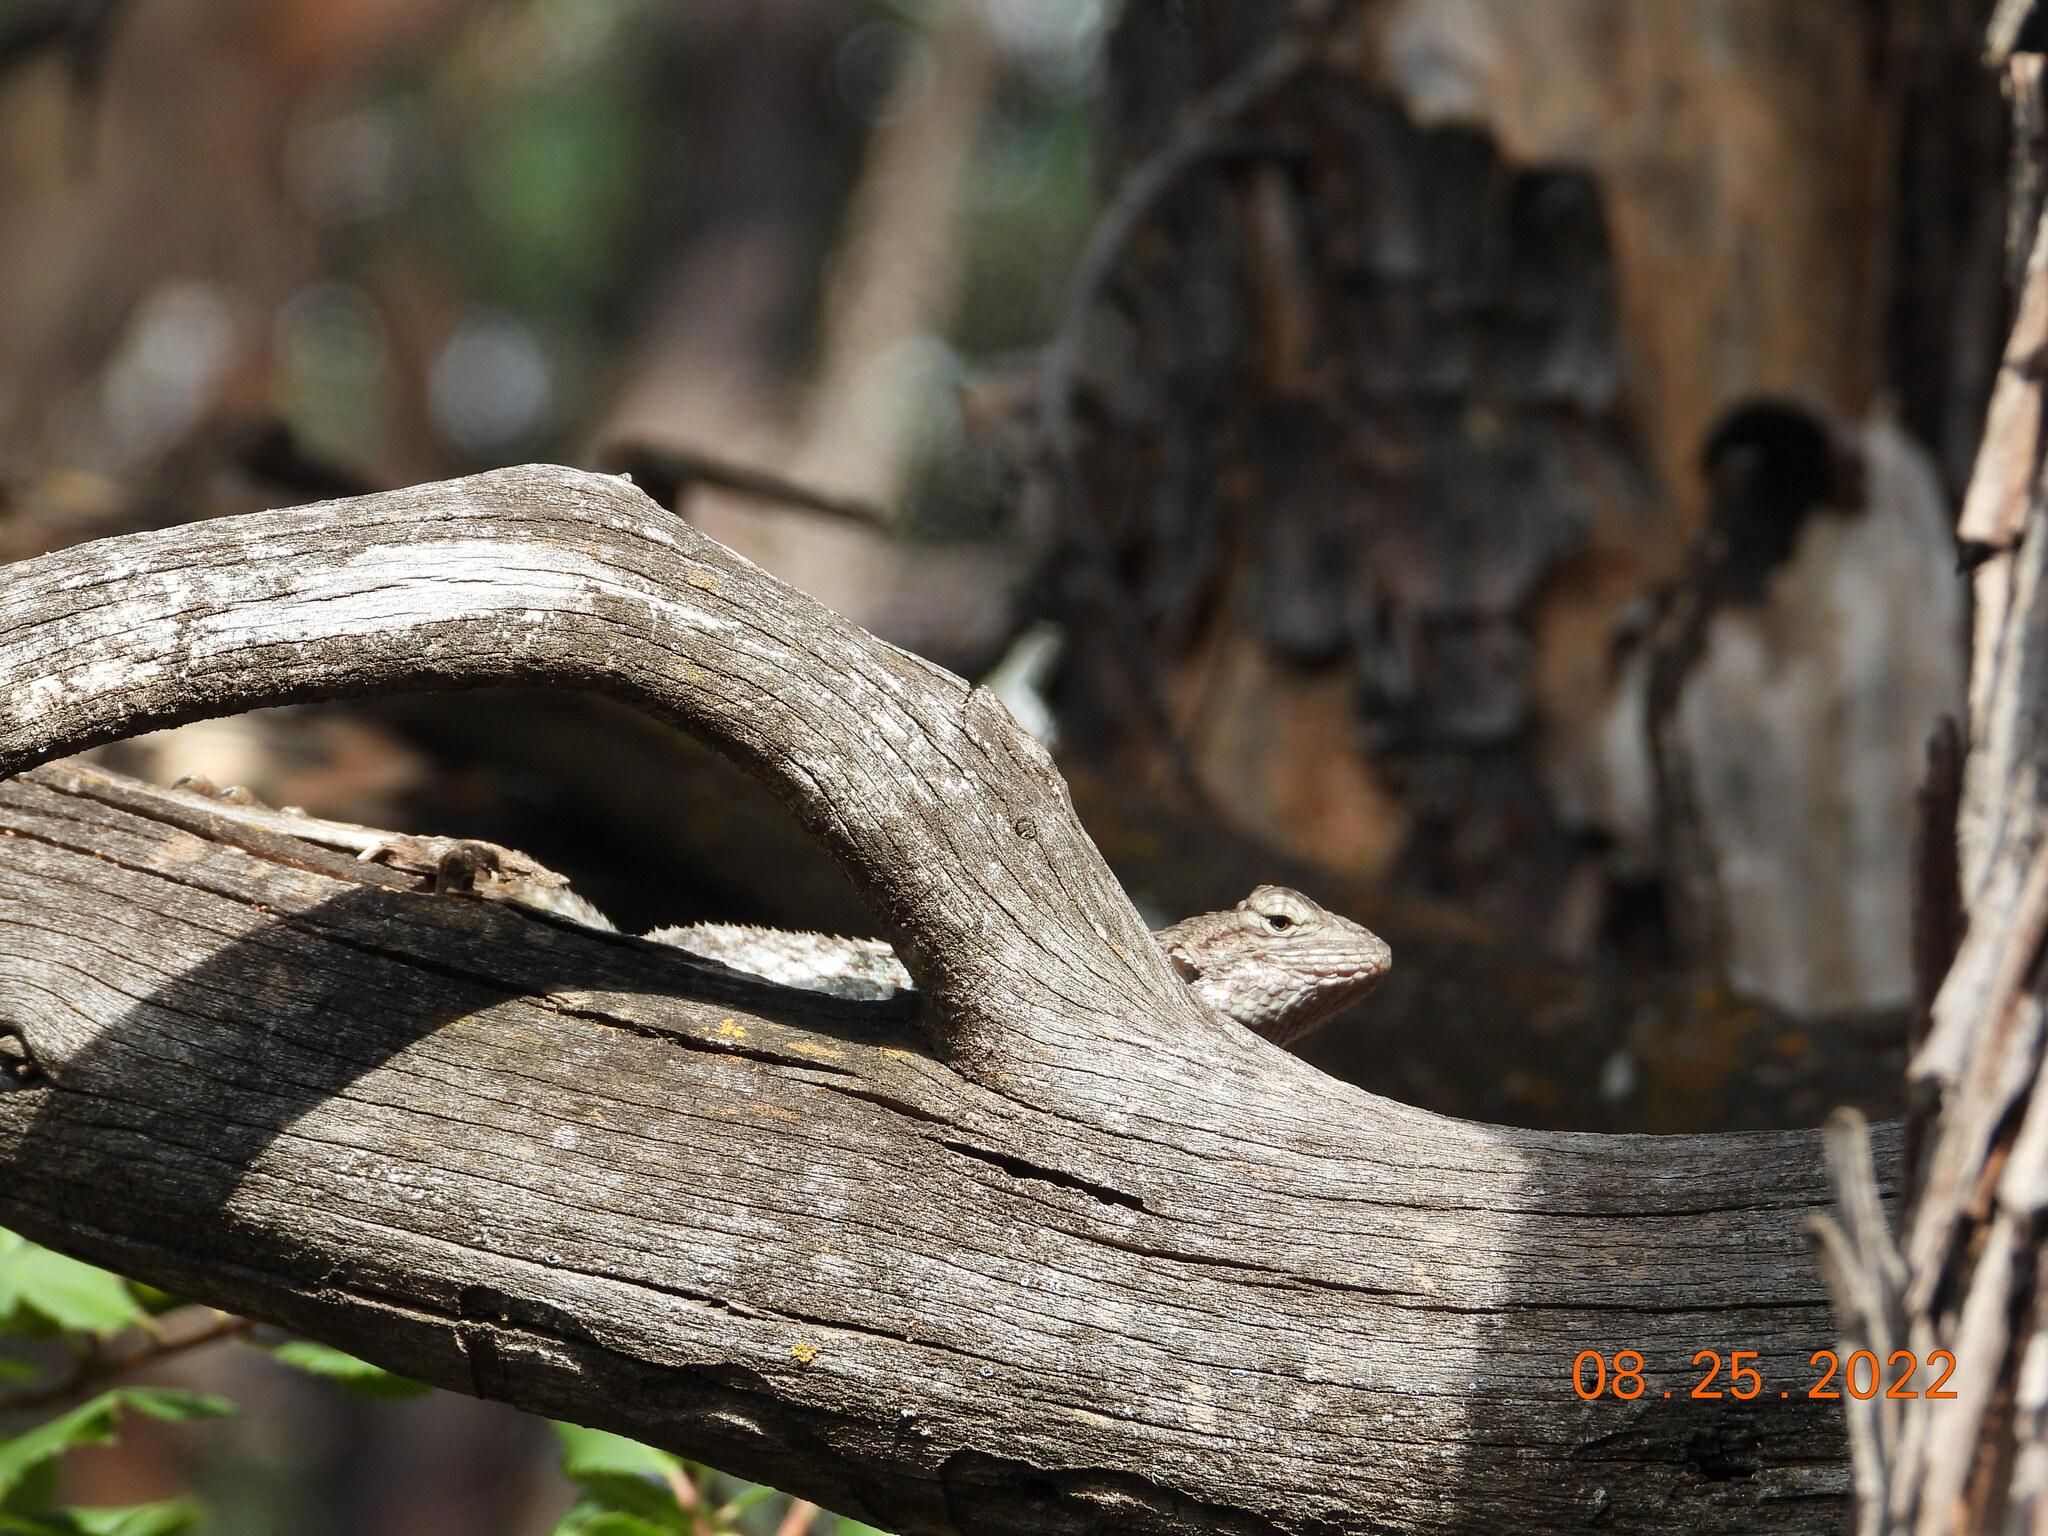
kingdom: Animalia
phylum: Chordata
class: Squamata
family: Phrynosomatidae
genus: Sceloporus
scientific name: Sceloporus clarkii
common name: Clark's spiny lizard
